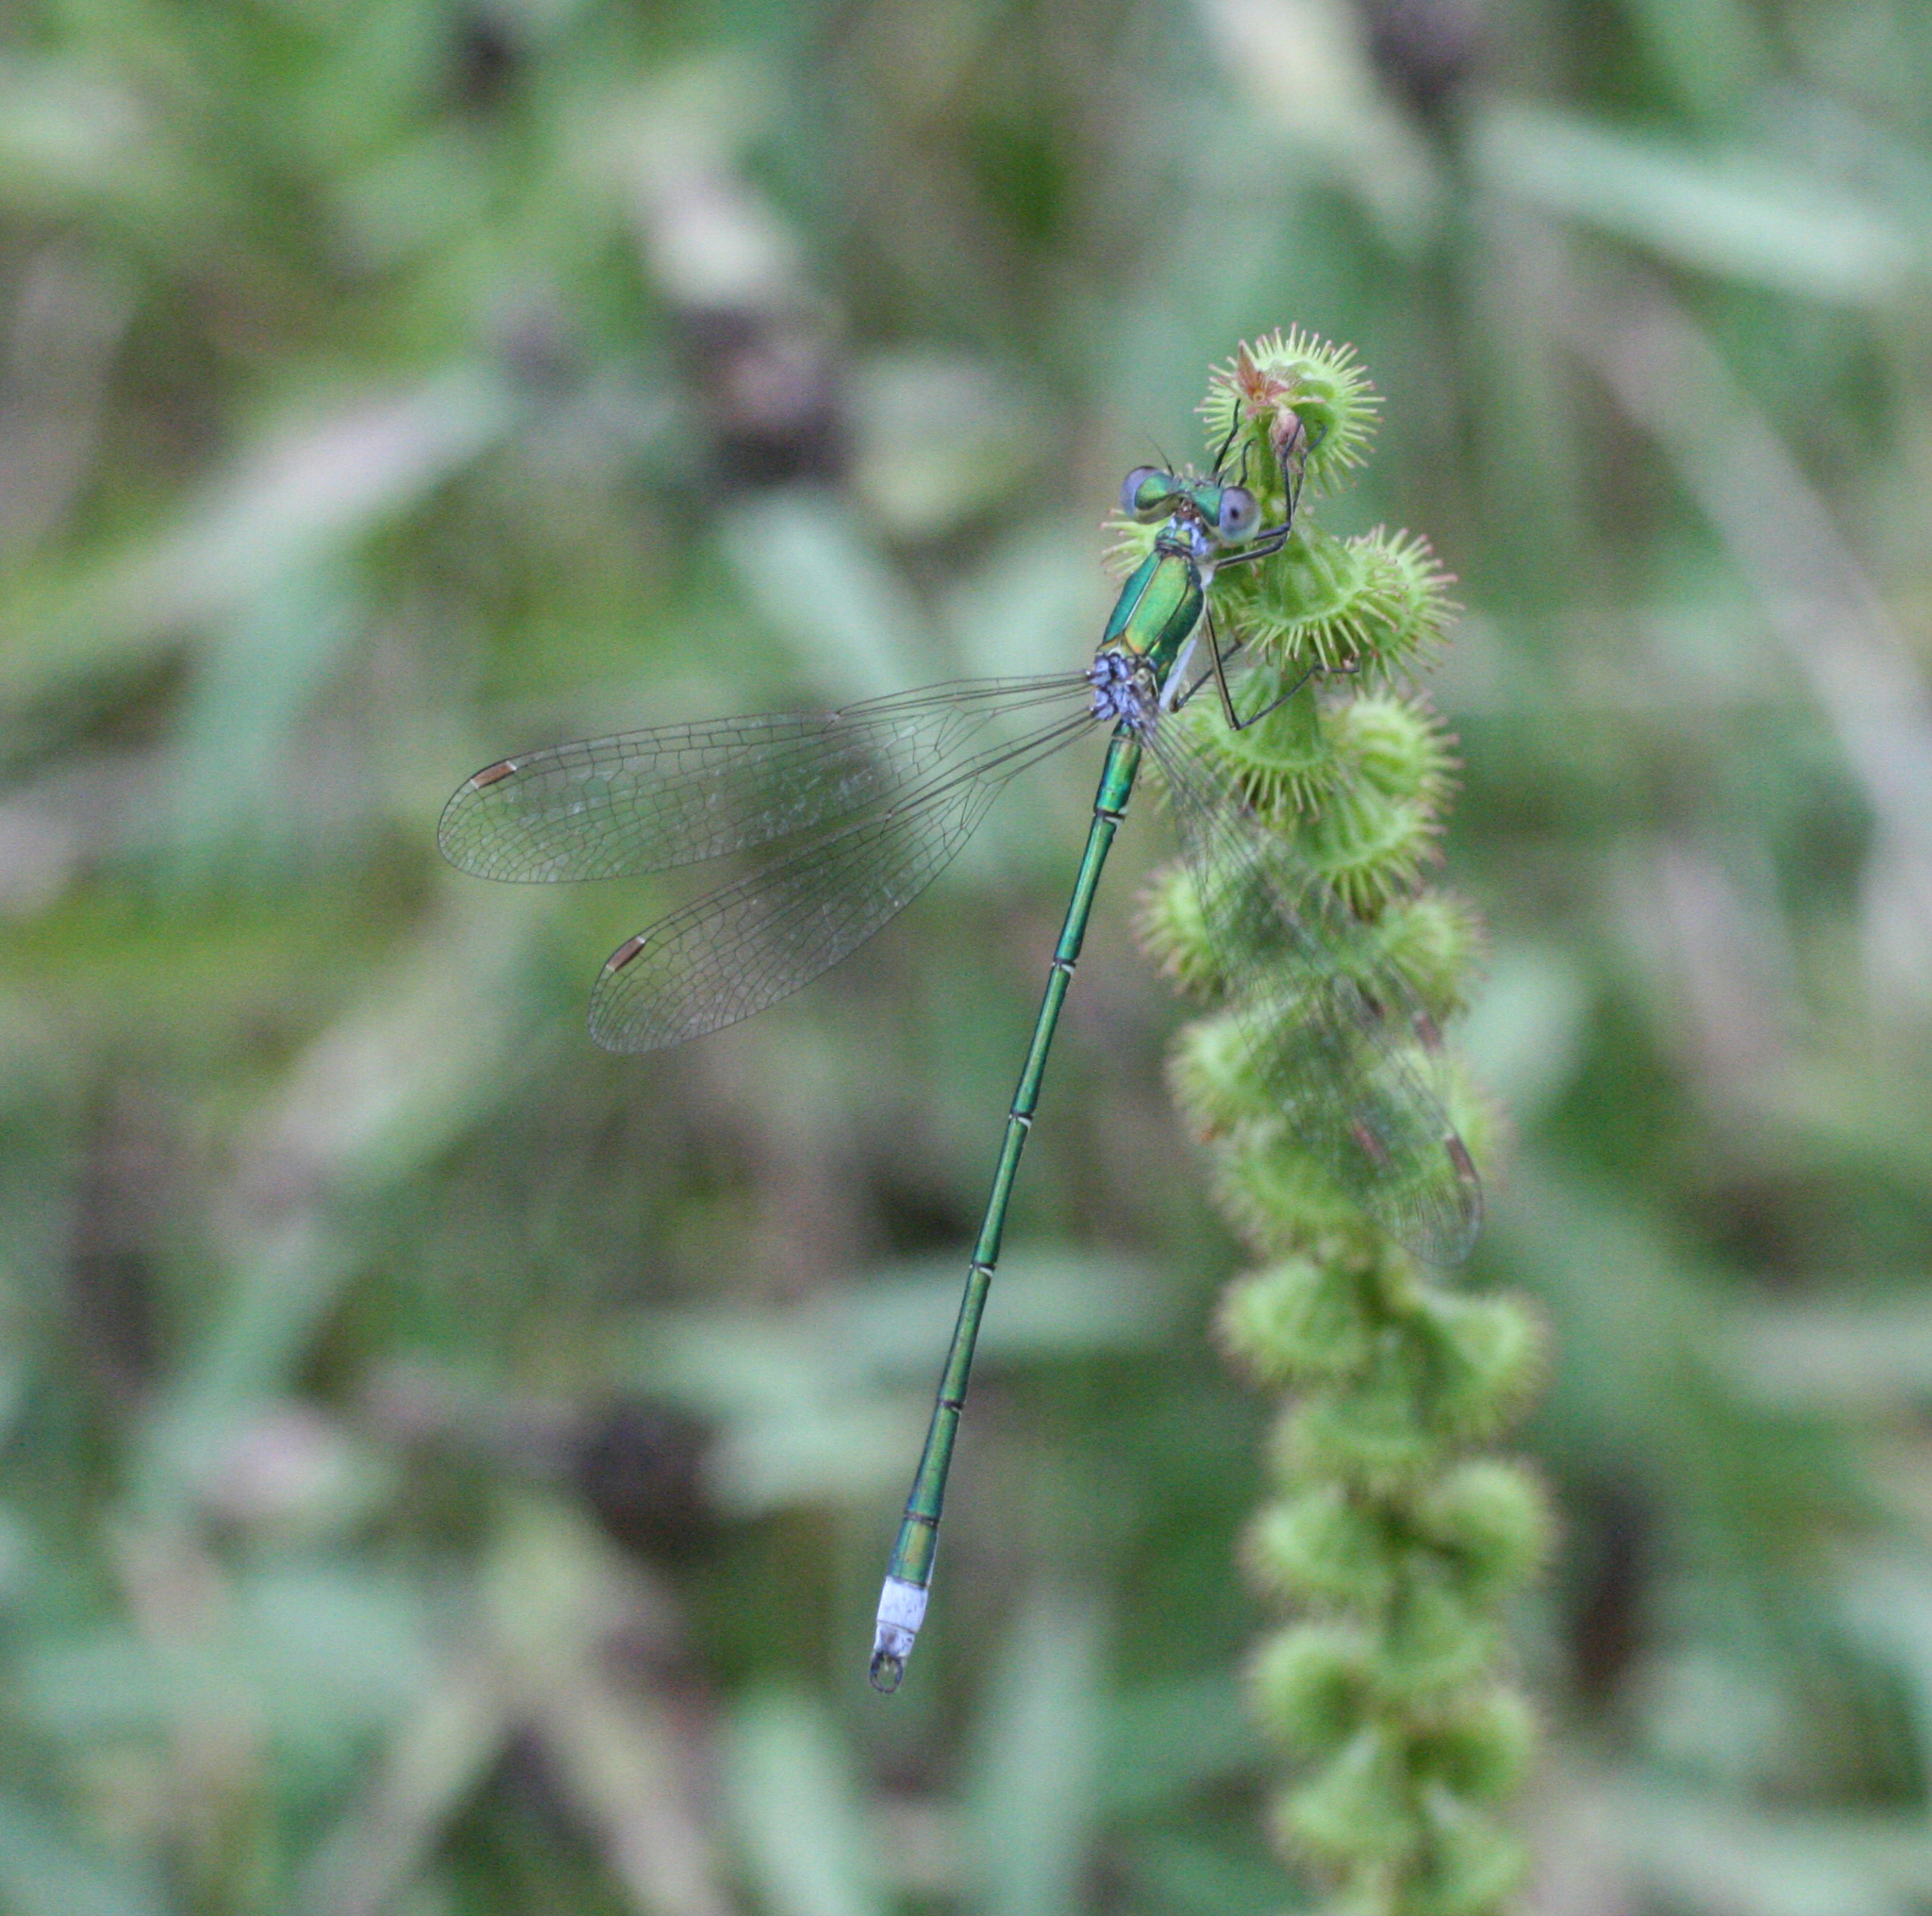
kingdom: Animalia
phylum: Arthropoda
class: Insecta
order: Odonata
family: Lestidae
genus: Lestes
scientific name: Lestes virens
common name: Small emerald spreadwing
